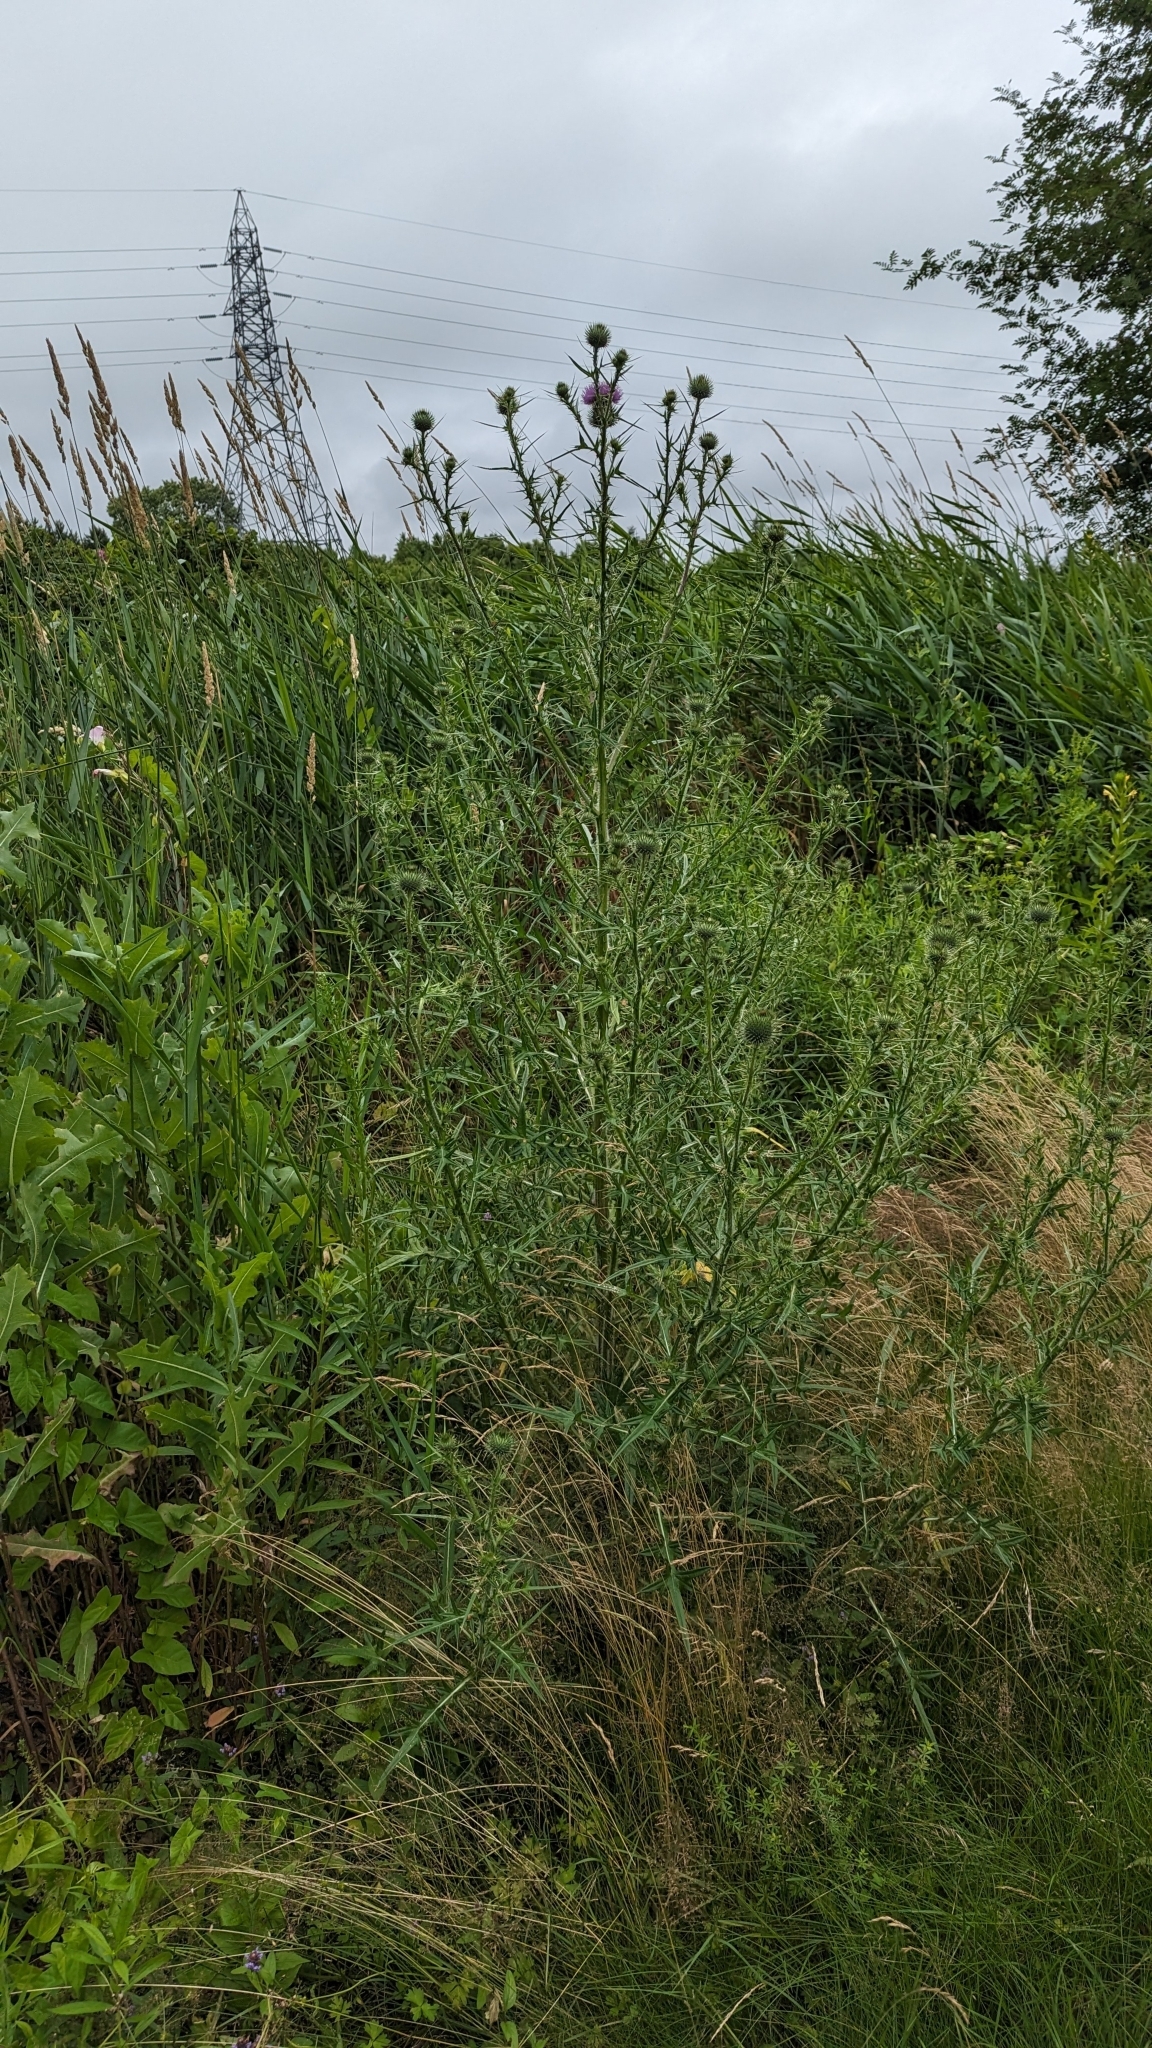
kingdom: Plantae
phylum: Tracheophyta
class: Magnoliopsida
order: Asterales
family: Asteraceae
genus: Cirsium
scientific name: Cirsium vulgare
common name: Bull thistle
